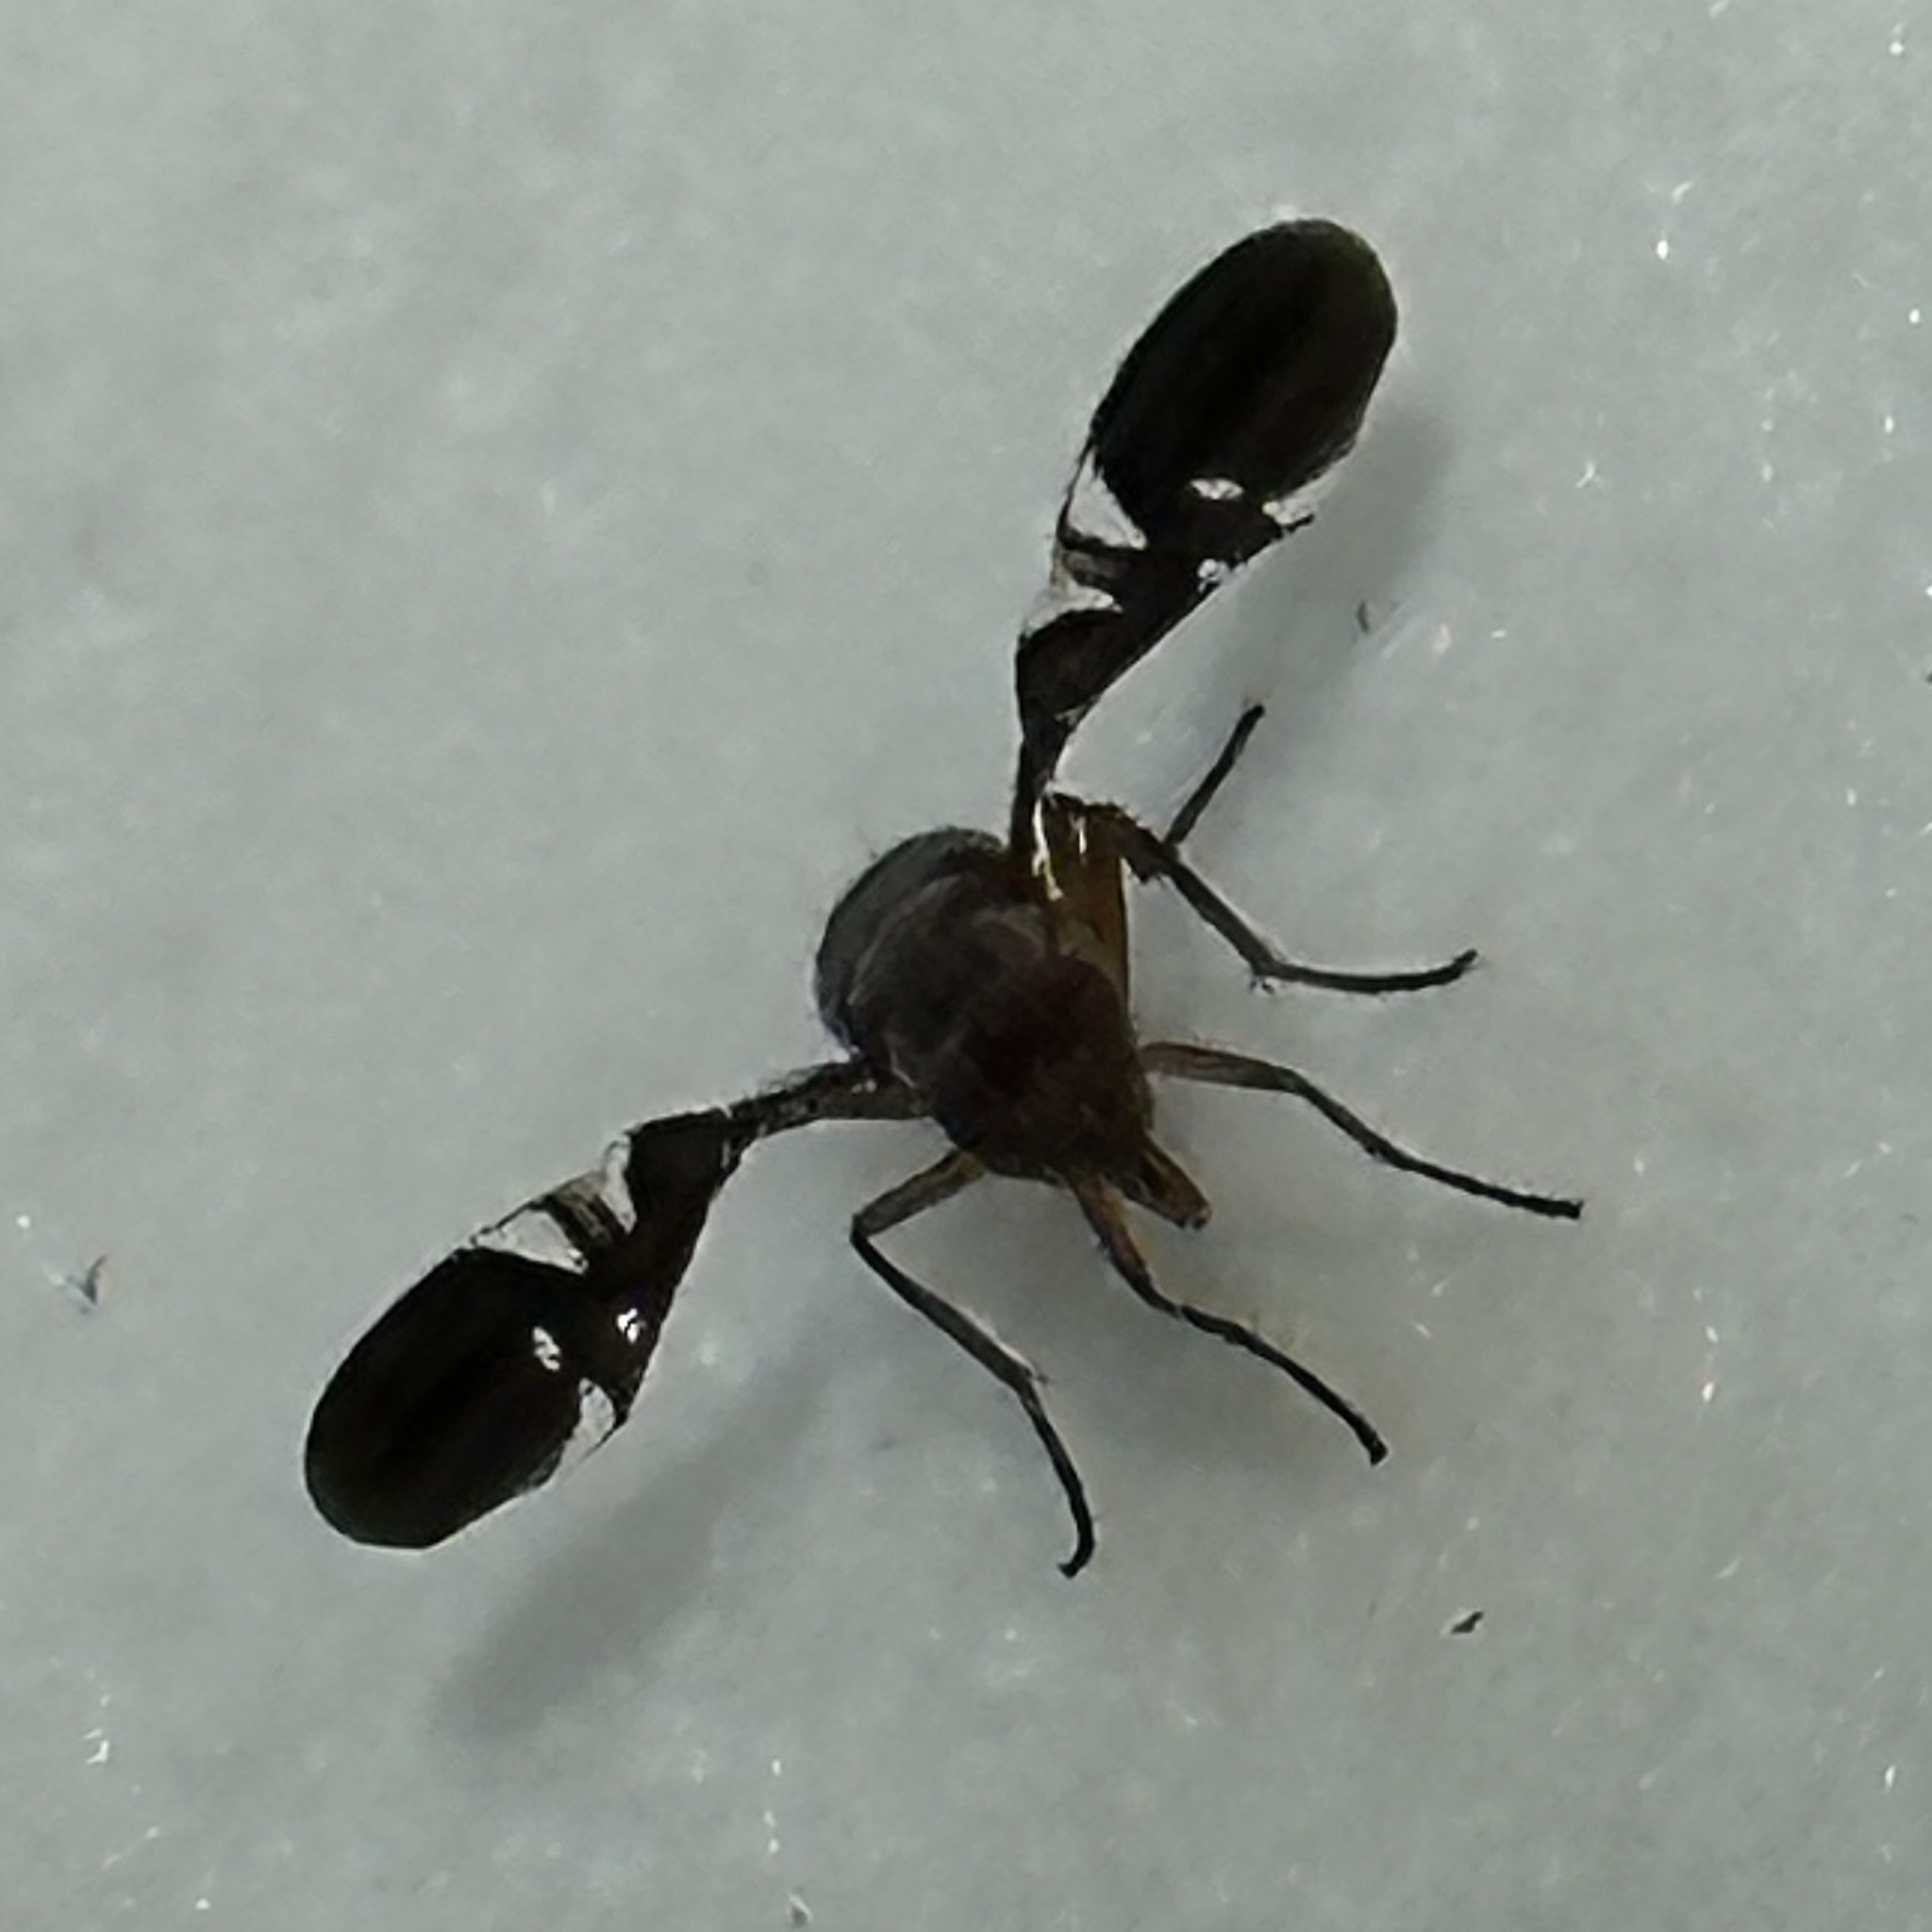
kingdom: Animalia
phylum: Arthropoda
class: Insecta
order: Diptera
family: Ulidiidae
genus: Delphinia
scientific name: Delphinia picta
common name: Common picture-winged fly
